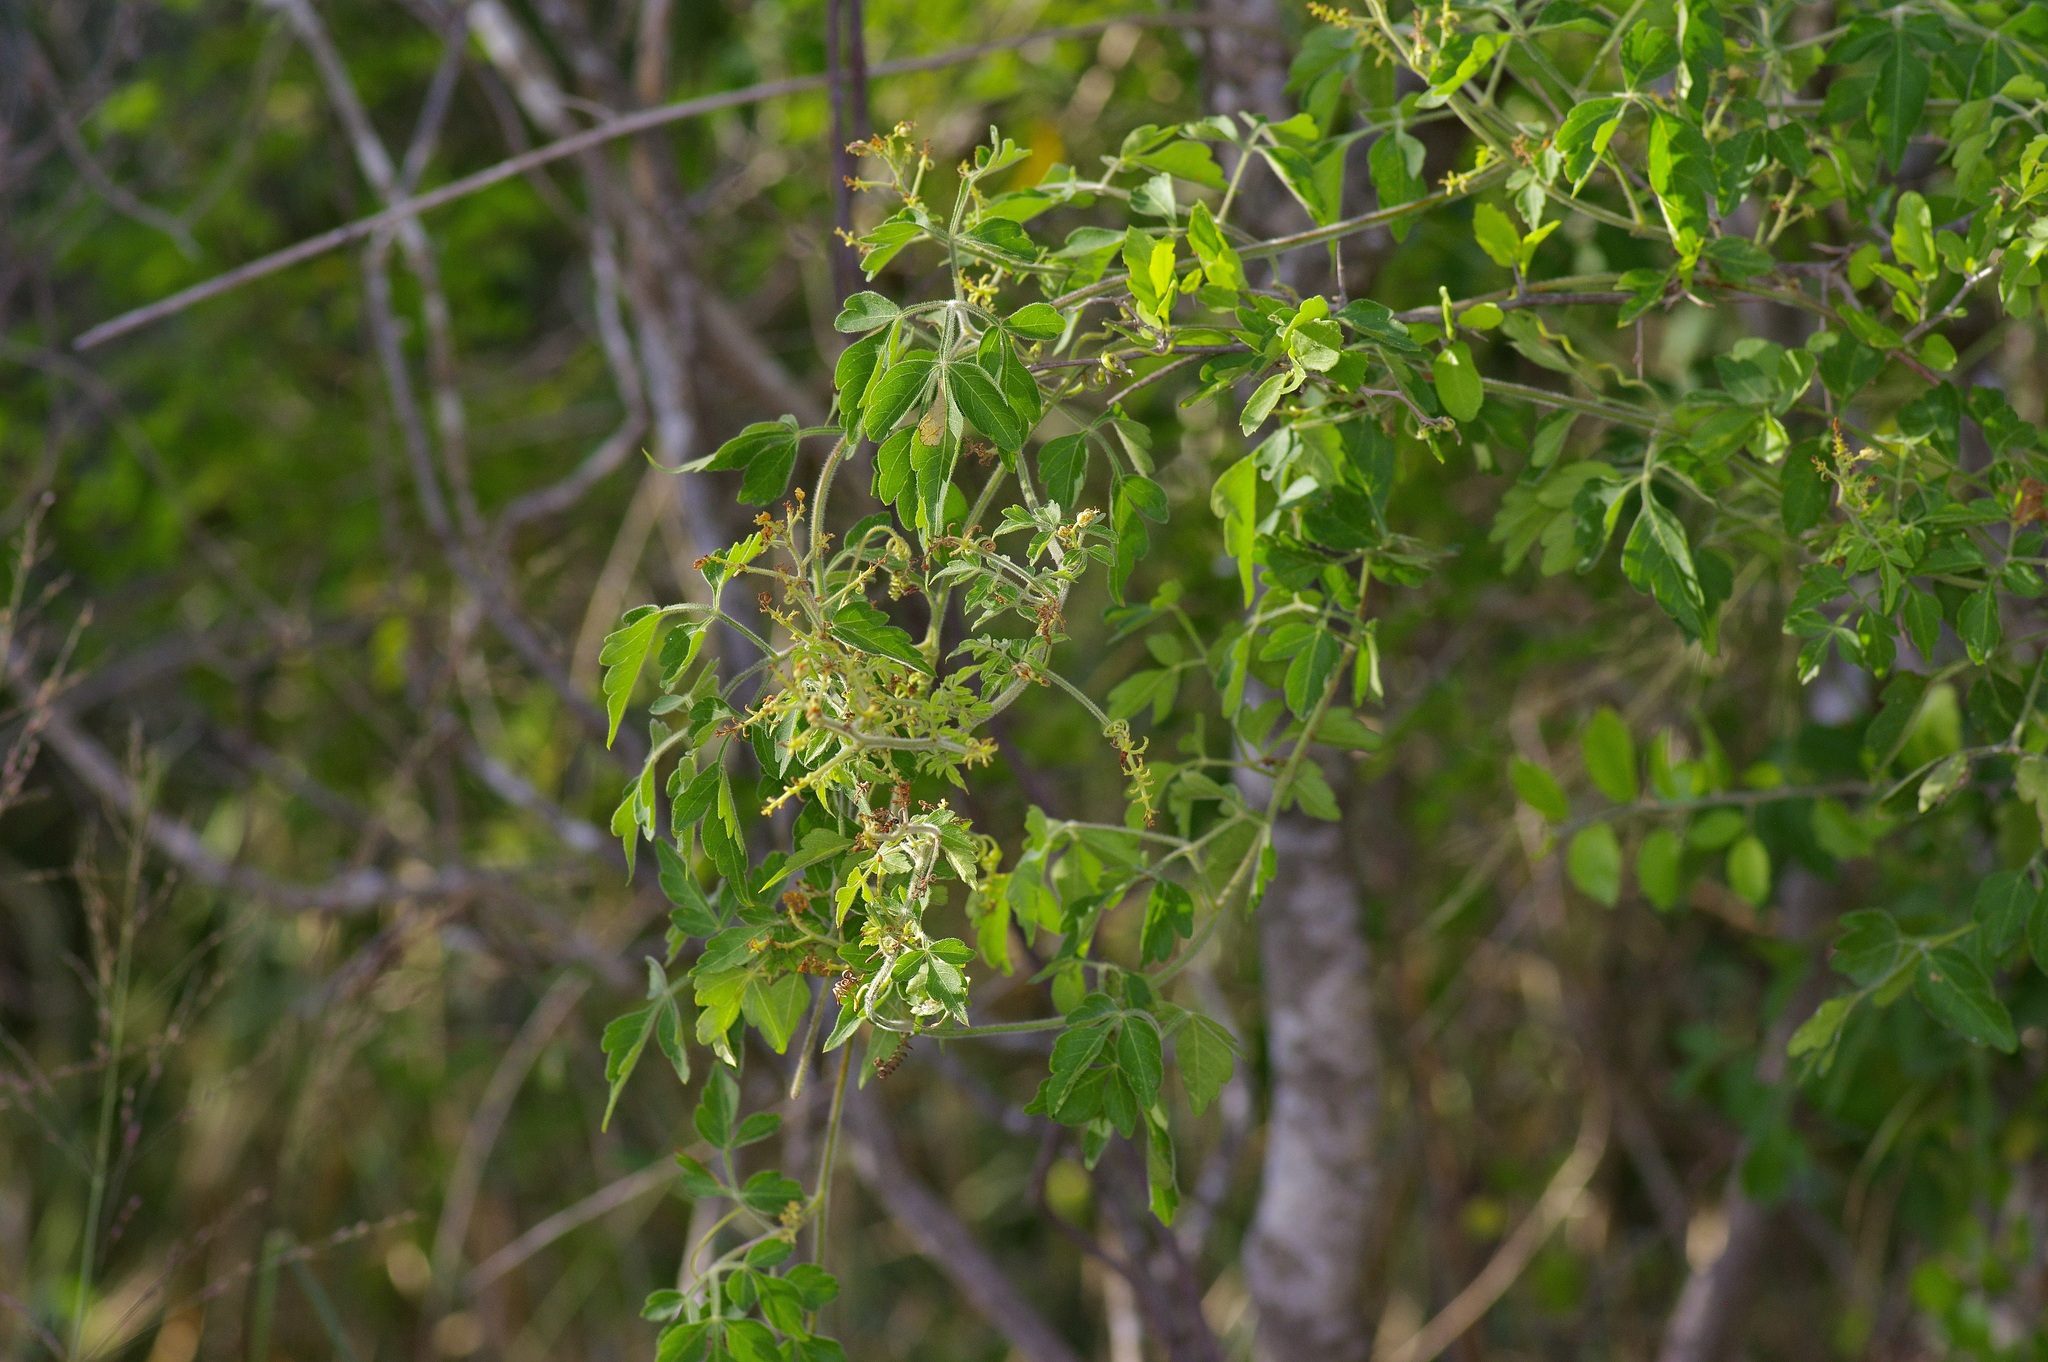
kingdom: Plantae
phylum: Tracheophyta
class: Magnoliopsida
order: Sapindales
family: Sapindaceae
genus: Serjania
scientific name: Serjania brachycarpa
